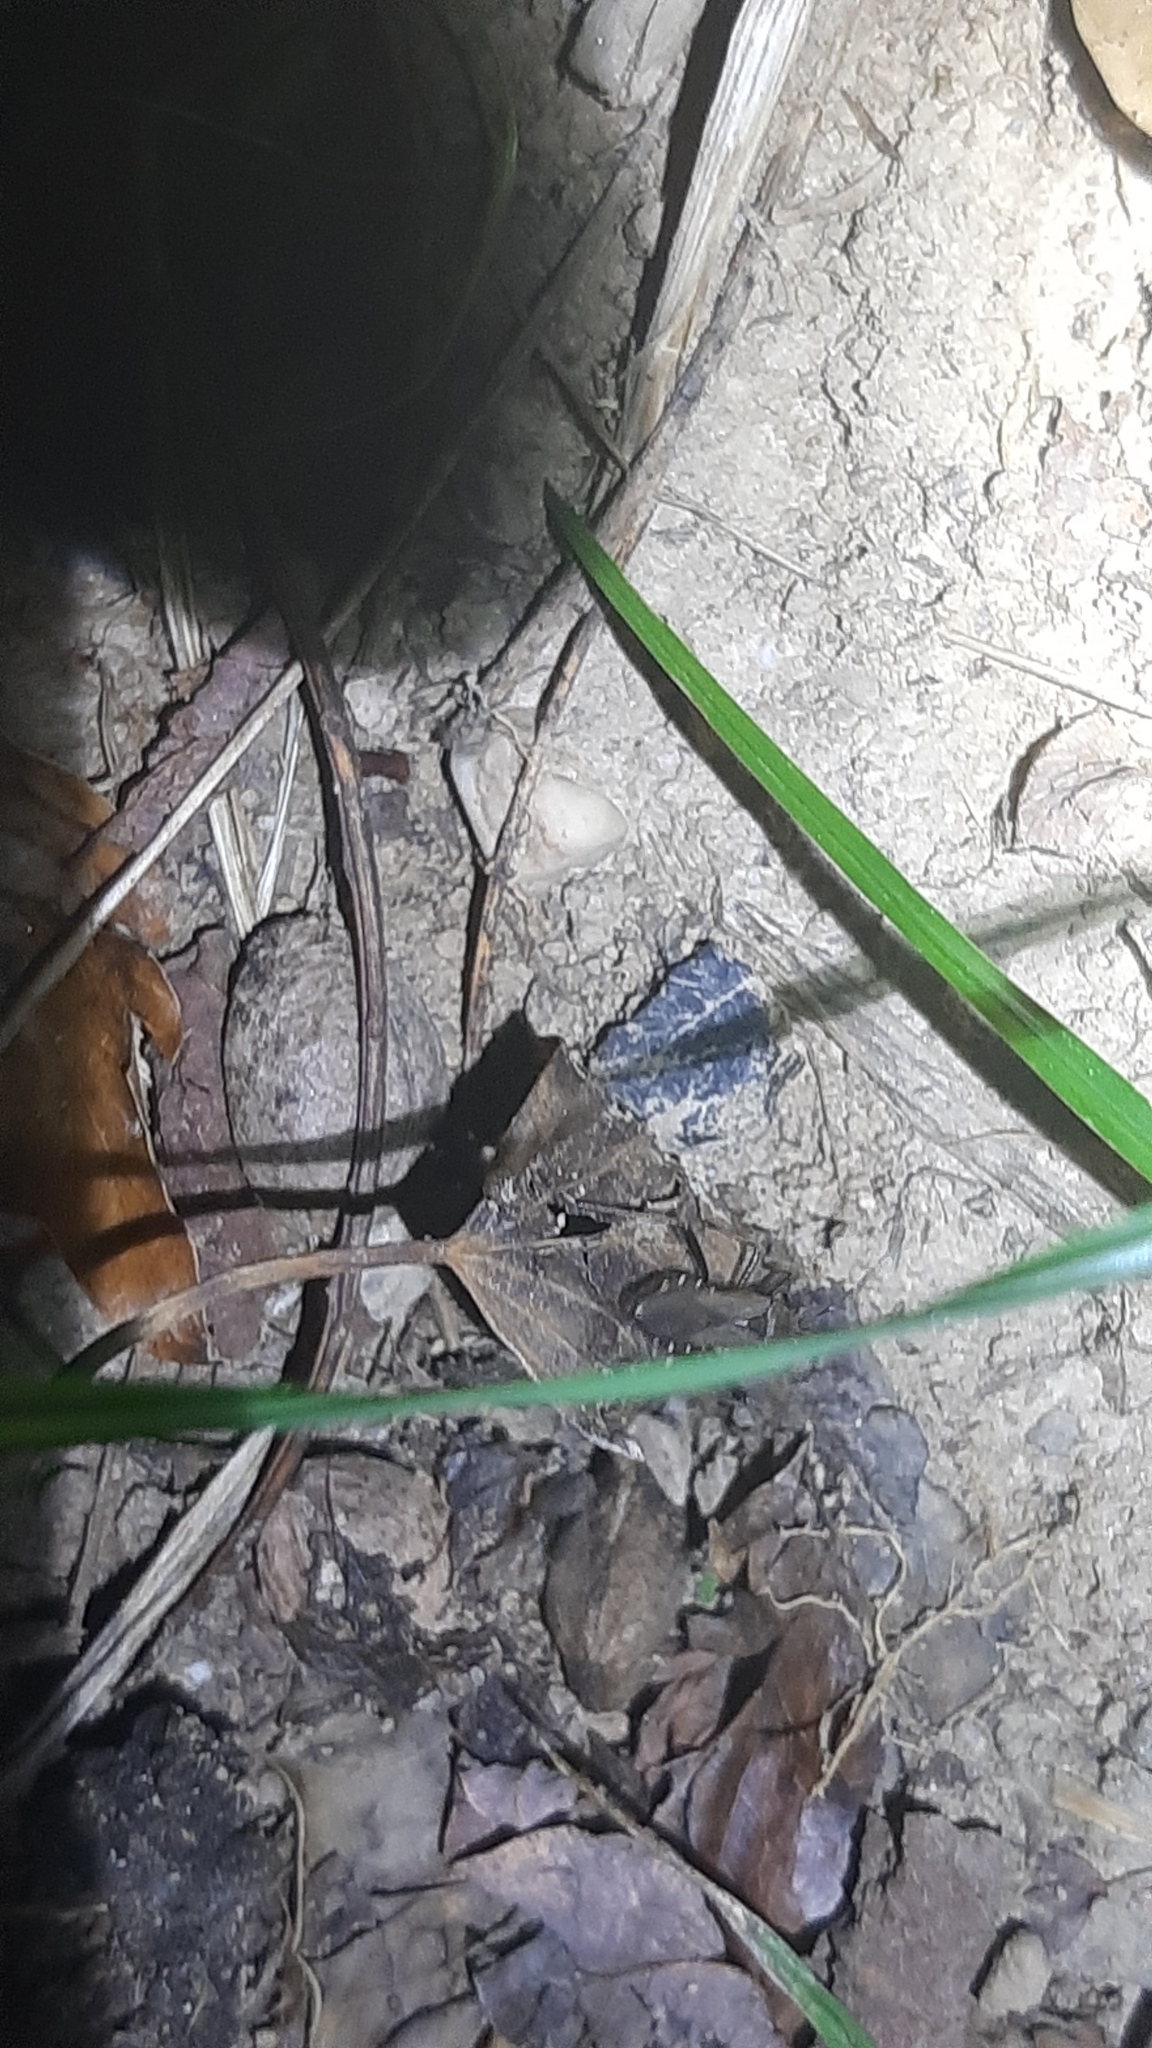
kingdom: Animalia
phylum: Arthropoda
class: Insecta
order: Hemiptera
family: Alydidae
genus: Alydus
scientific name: Alydus calcaratus
